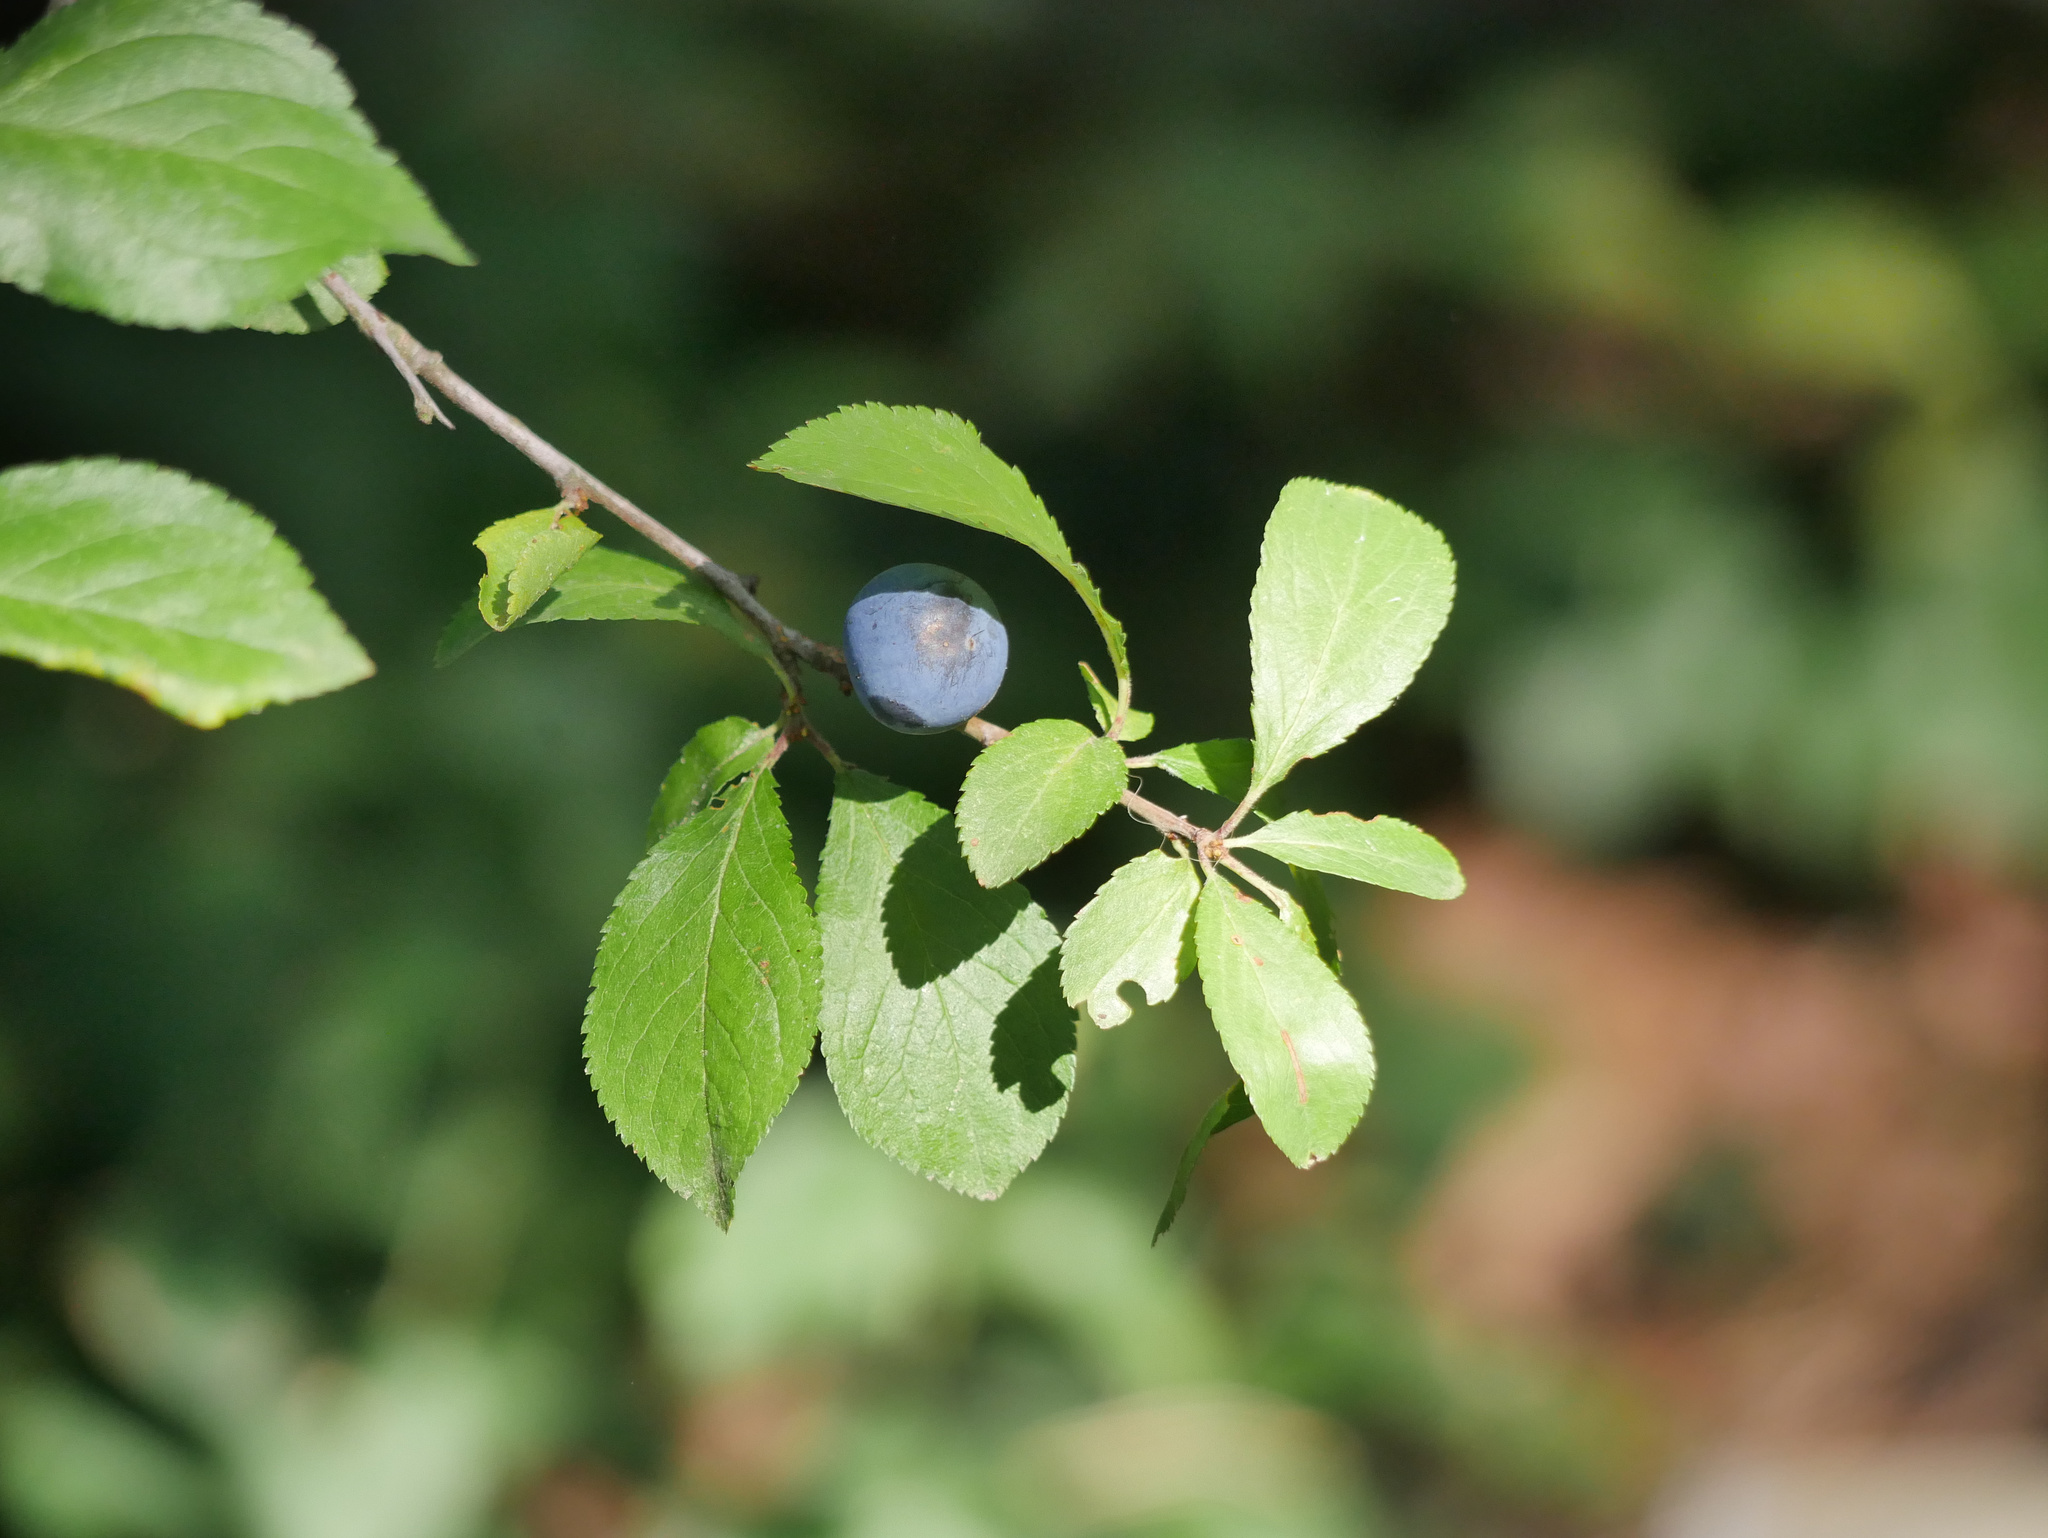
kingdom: Plantae
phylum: Tracheophyta
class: Magnoliopsida
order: Rosales
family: Rosaceae
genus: Prunus
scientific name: Prunus spinosa
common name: Blackthorn
